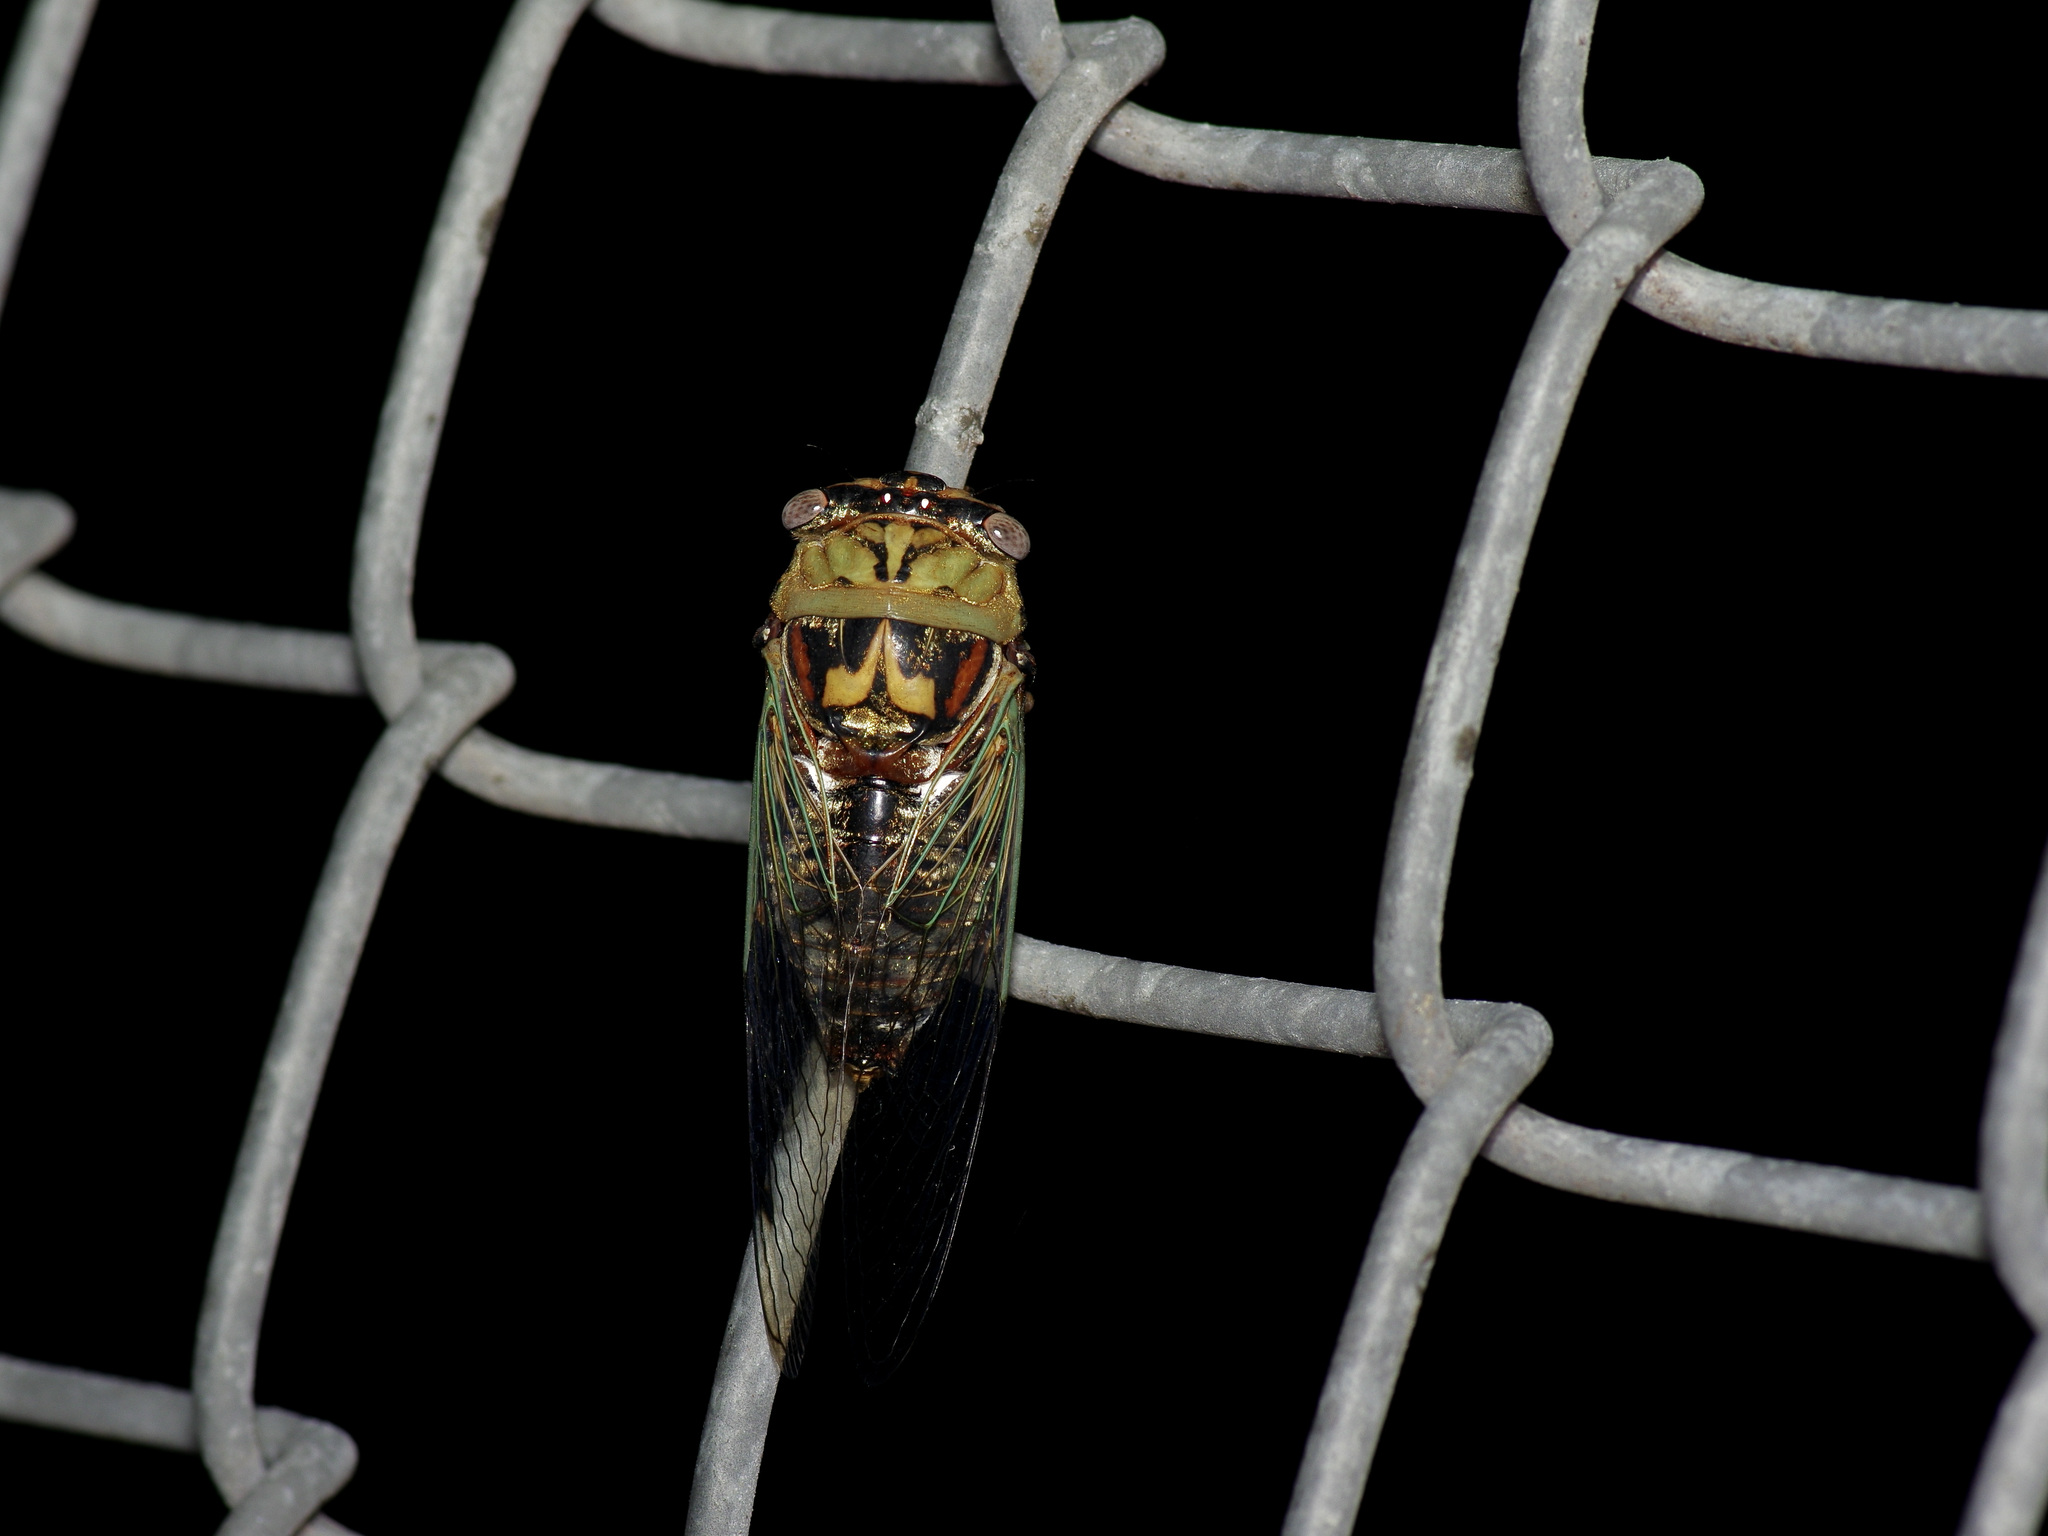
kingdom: Animalia
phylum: Arthropoda
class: Insecta
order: Hemiptera
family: Cicadidae
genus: Megatibicen
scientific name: Megatibicen resh
